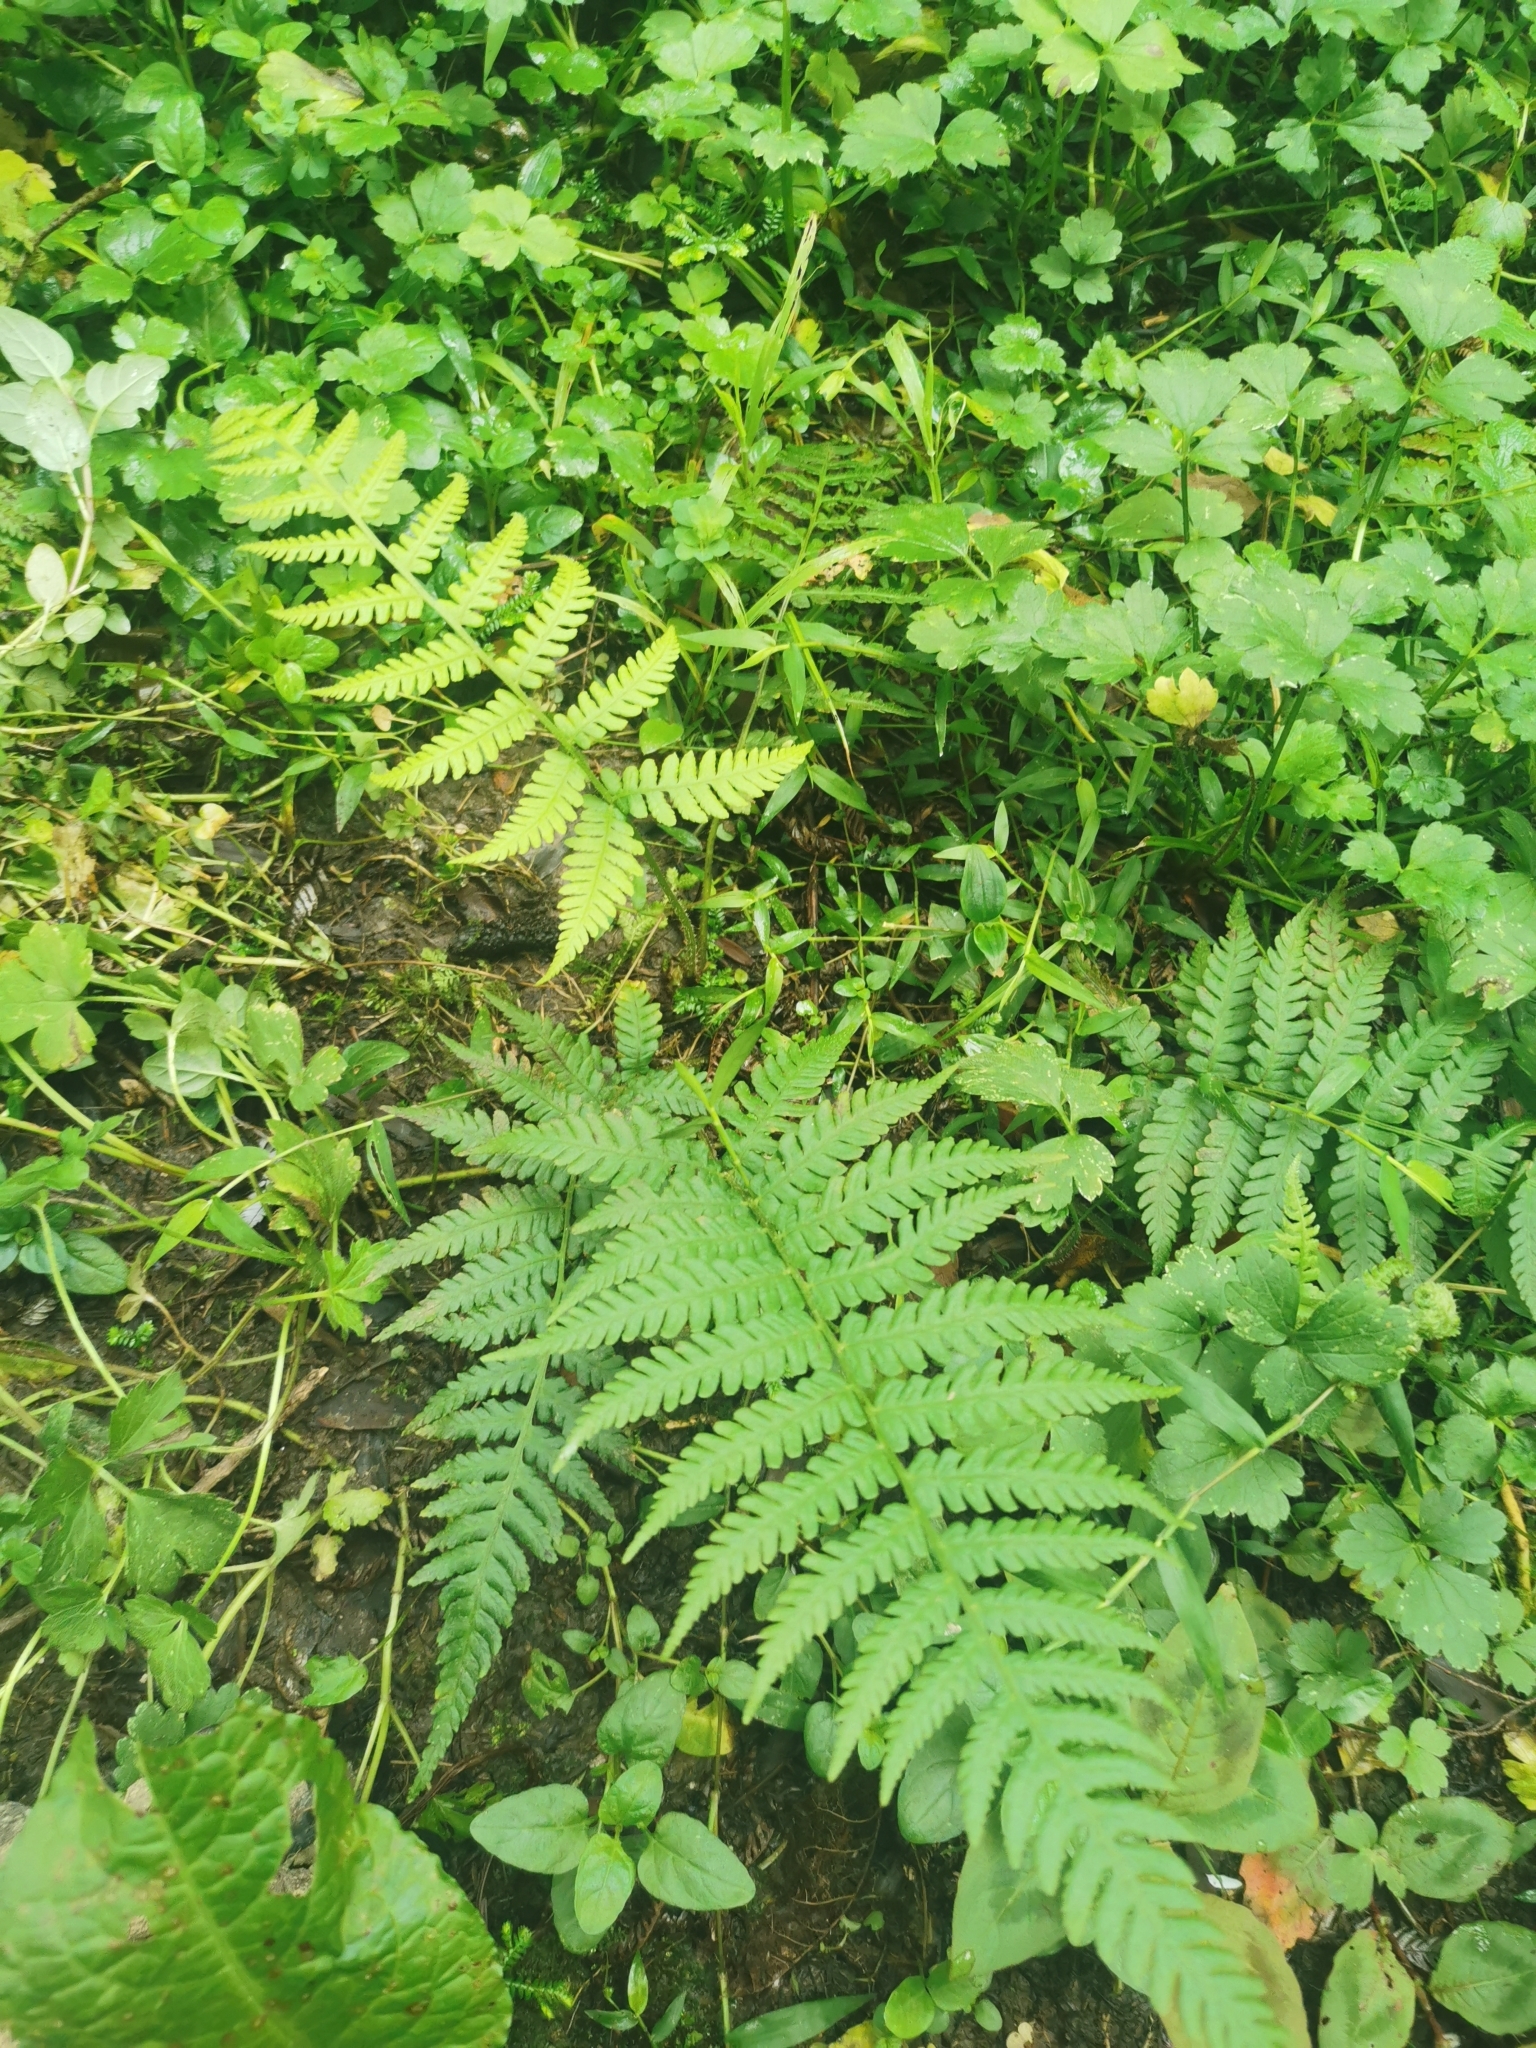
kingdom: Plantae
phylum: Tracheophyta
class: Polypodiopsida
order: Polypodiales
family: Athyriaceae
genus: Diplazium
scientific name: Diplazium congruum
